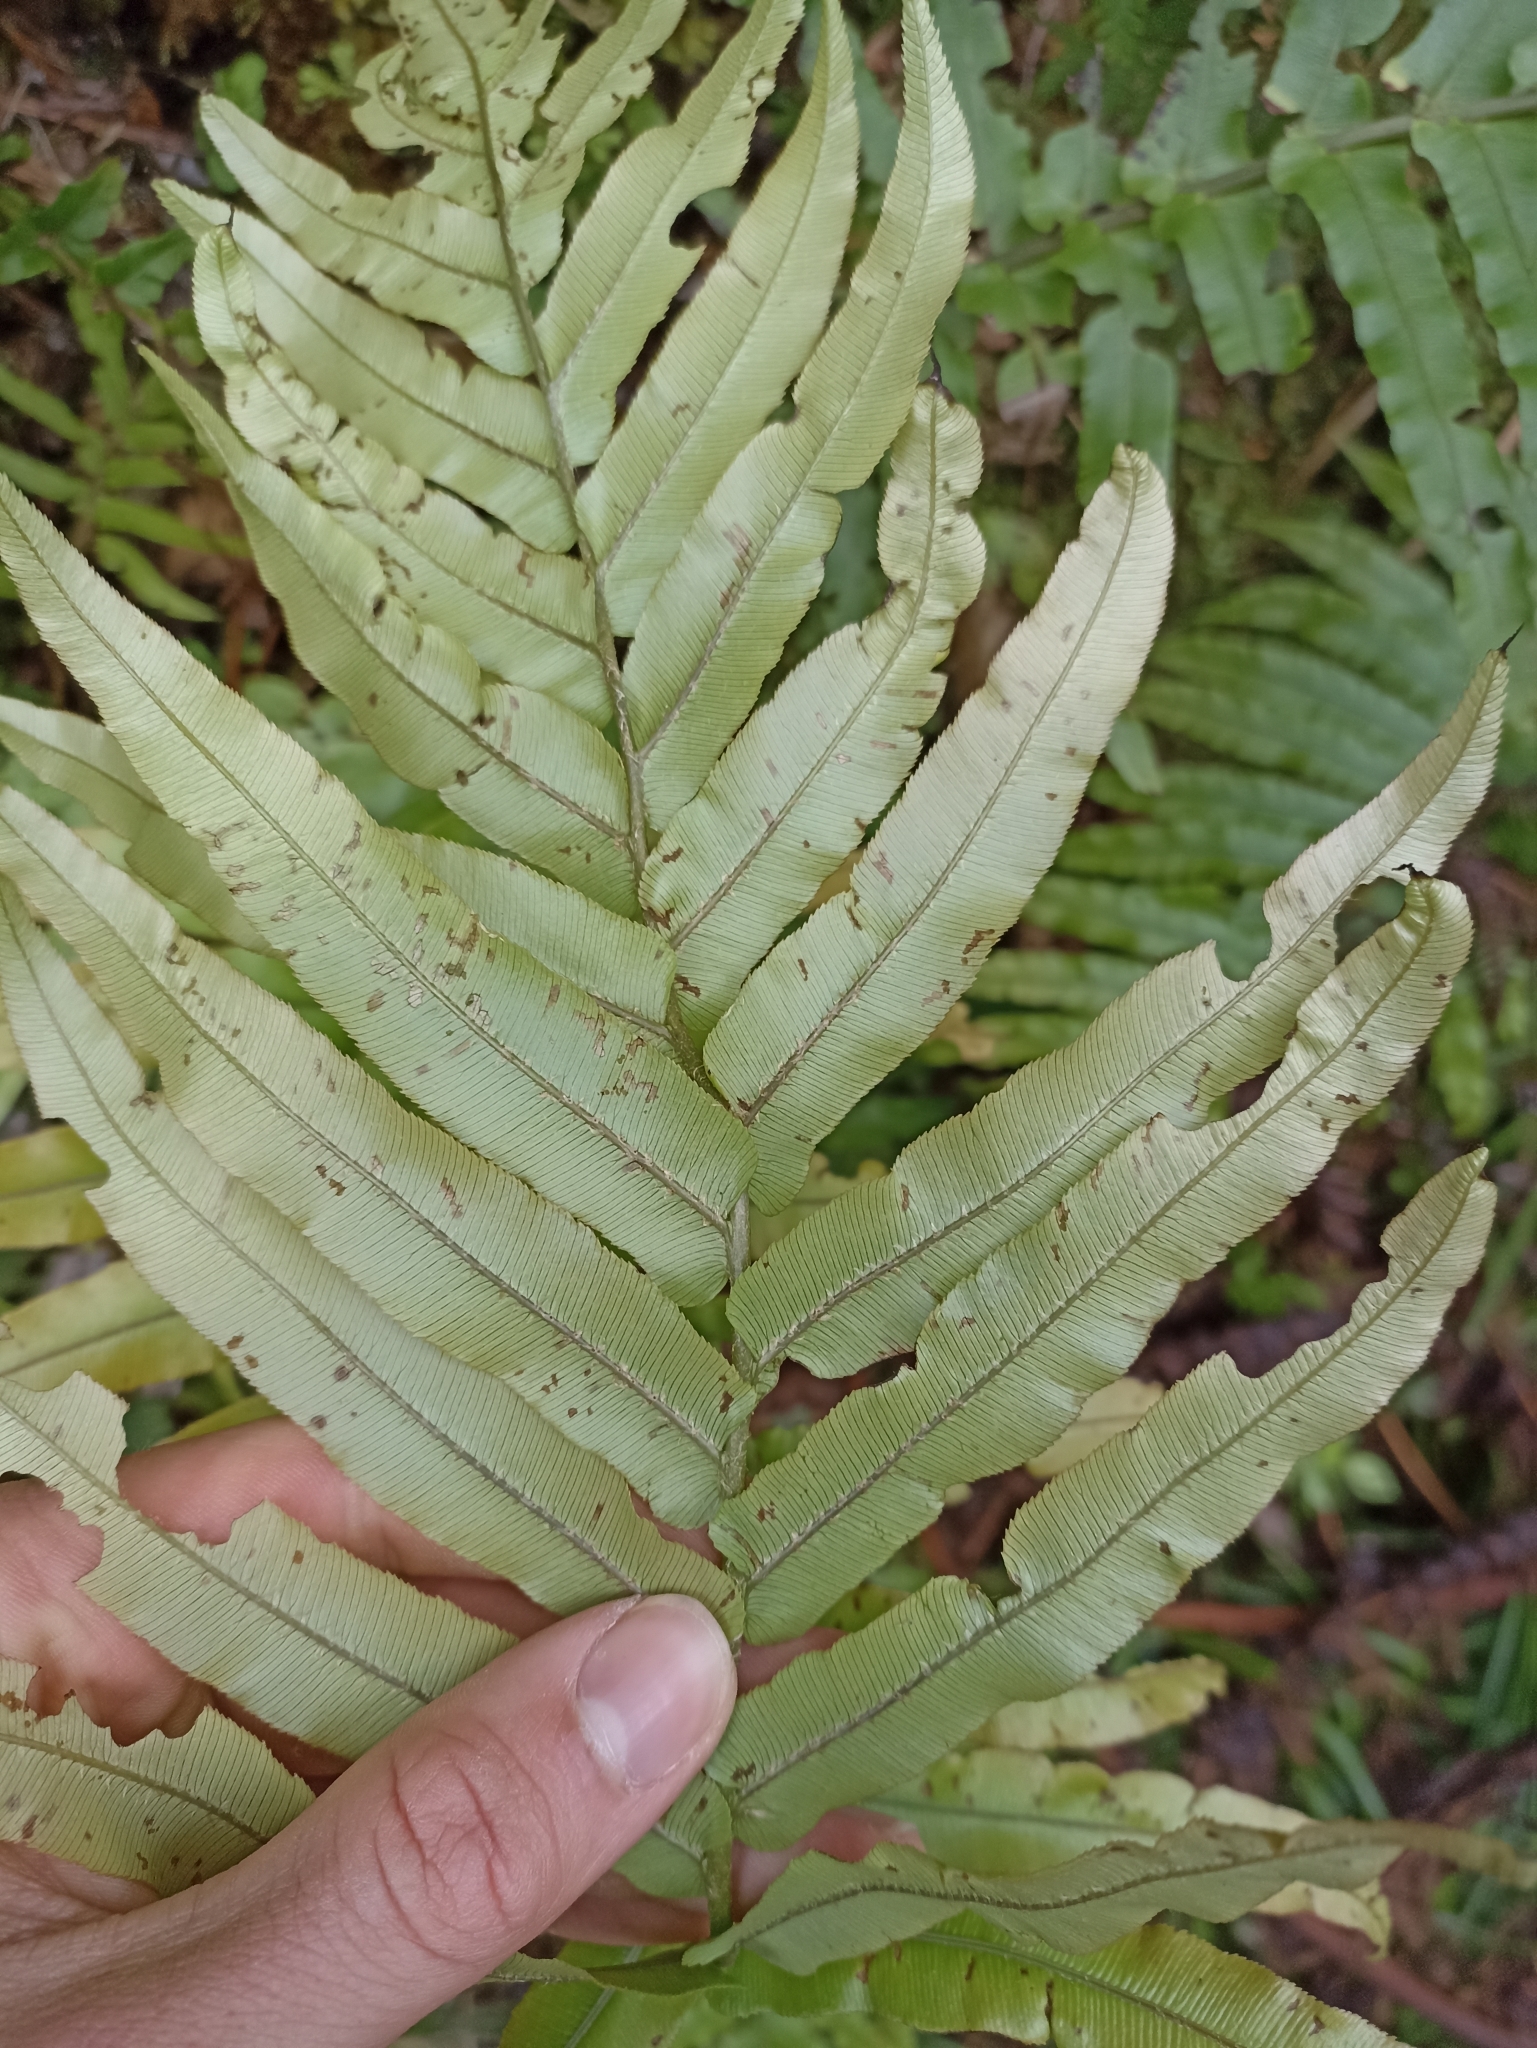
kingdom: Plantae
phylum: Tracheophyta
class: Polypodiopsida
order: Polypodiales
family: Blechnaceae
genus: Parablechnum
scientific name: Parablechnum novae-zelandiae
